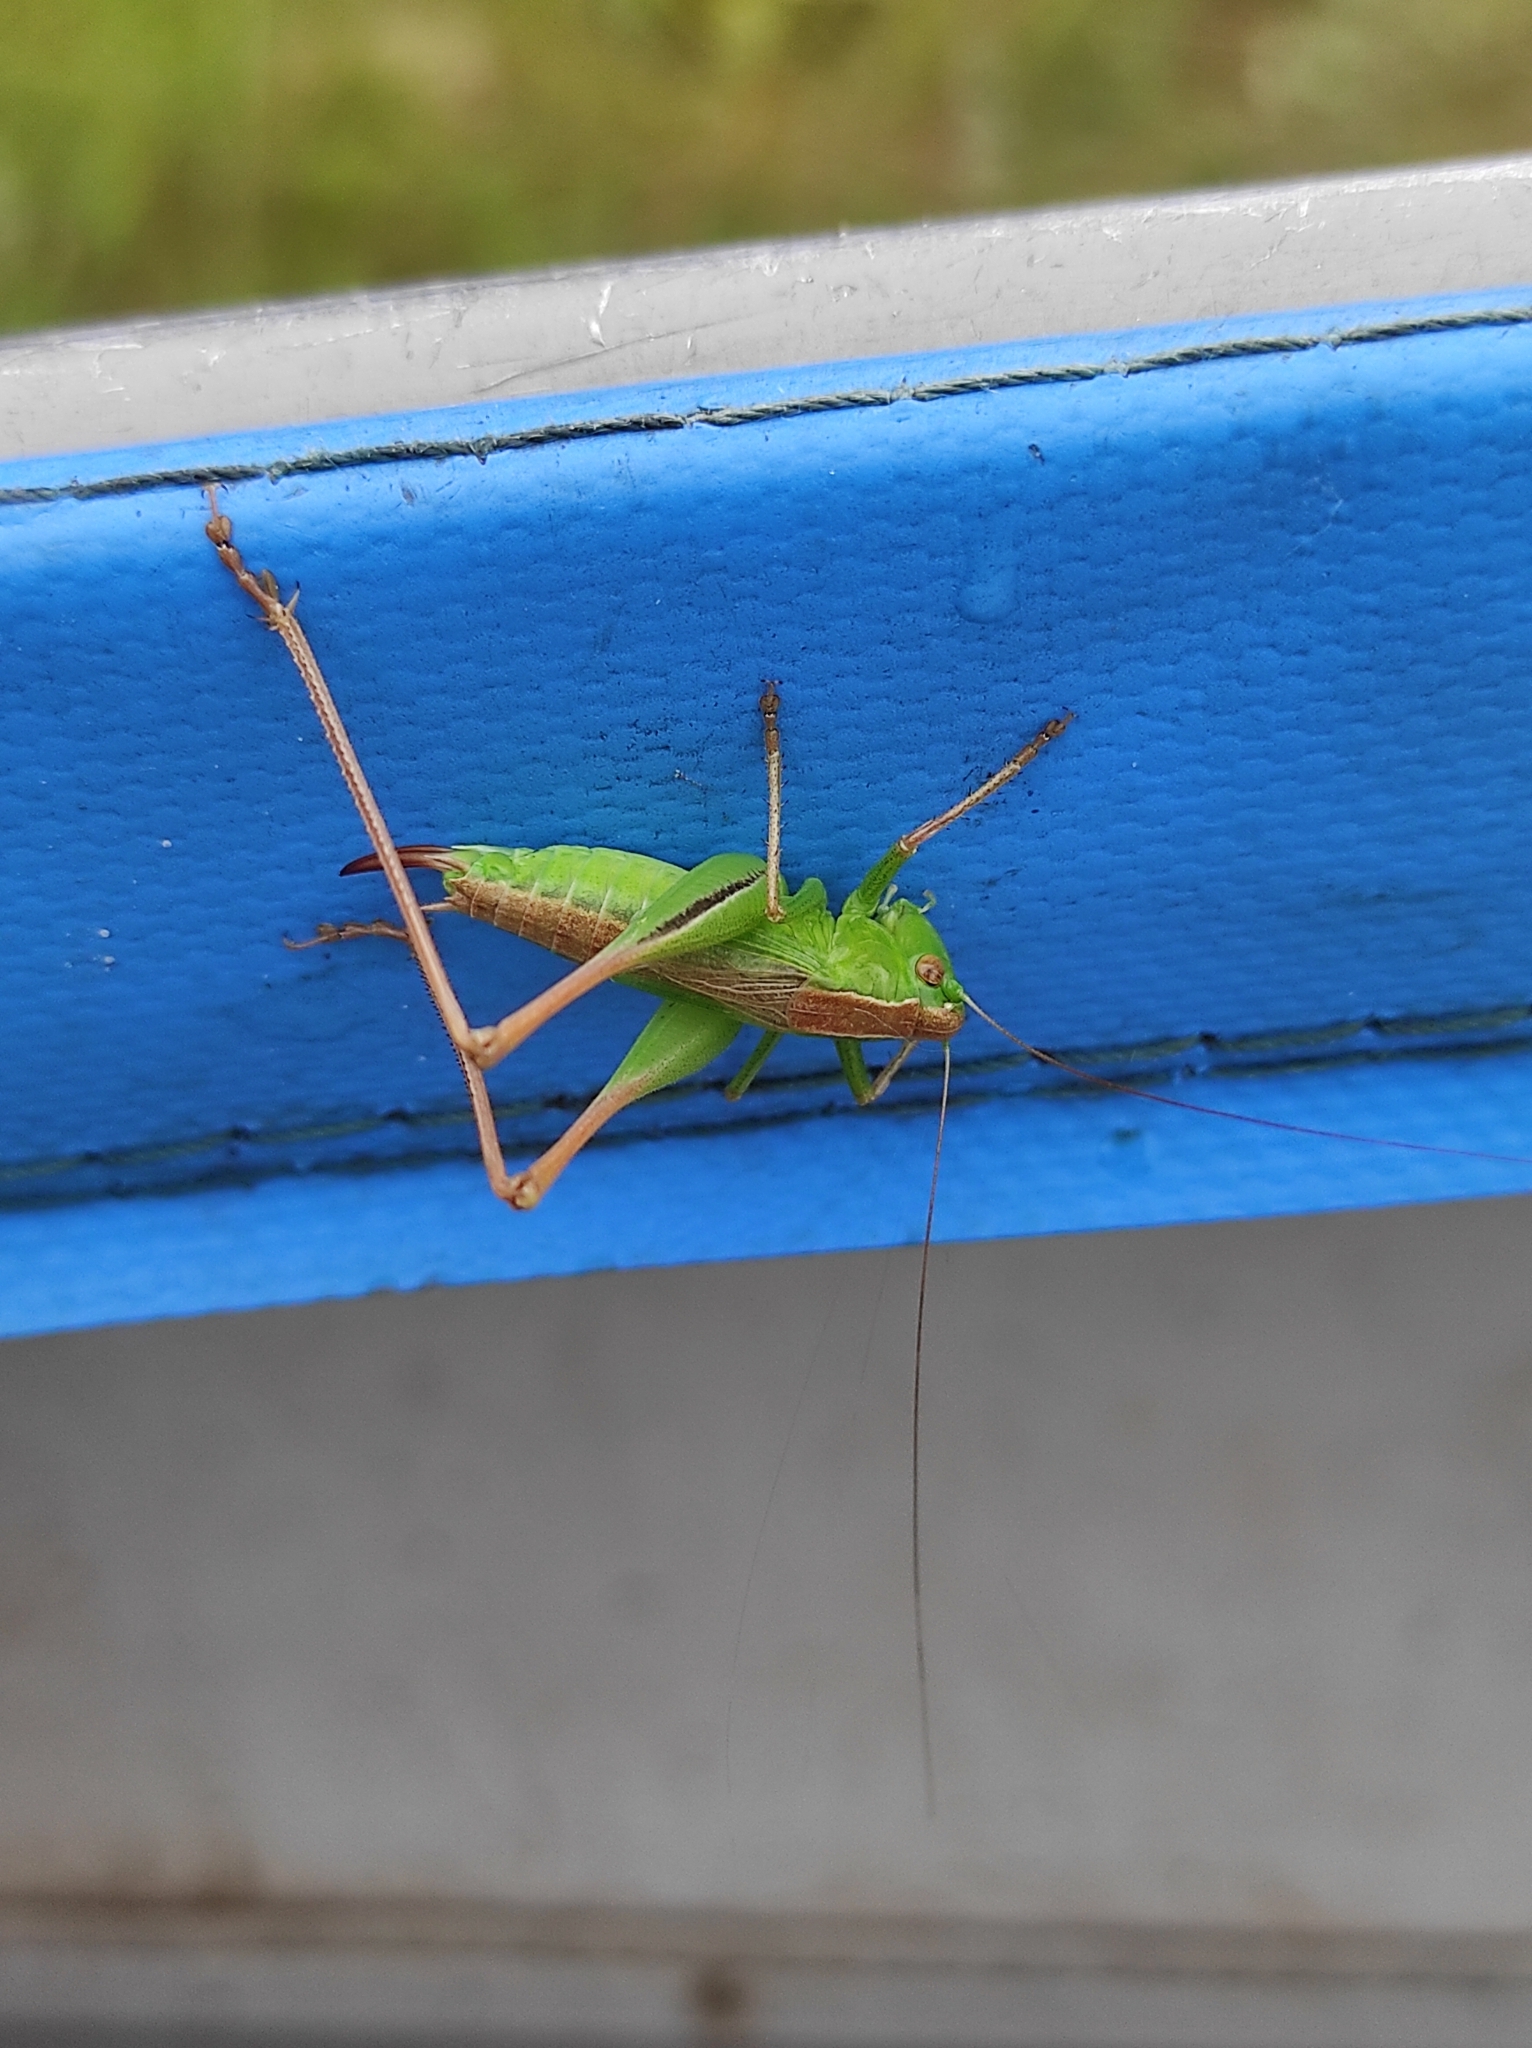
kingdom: Animalia
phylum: Arthropoda
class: Insecta
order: Orthoptera
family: Tettigoniidae
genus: Bicolorana
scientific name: Bicolorana bicolor
